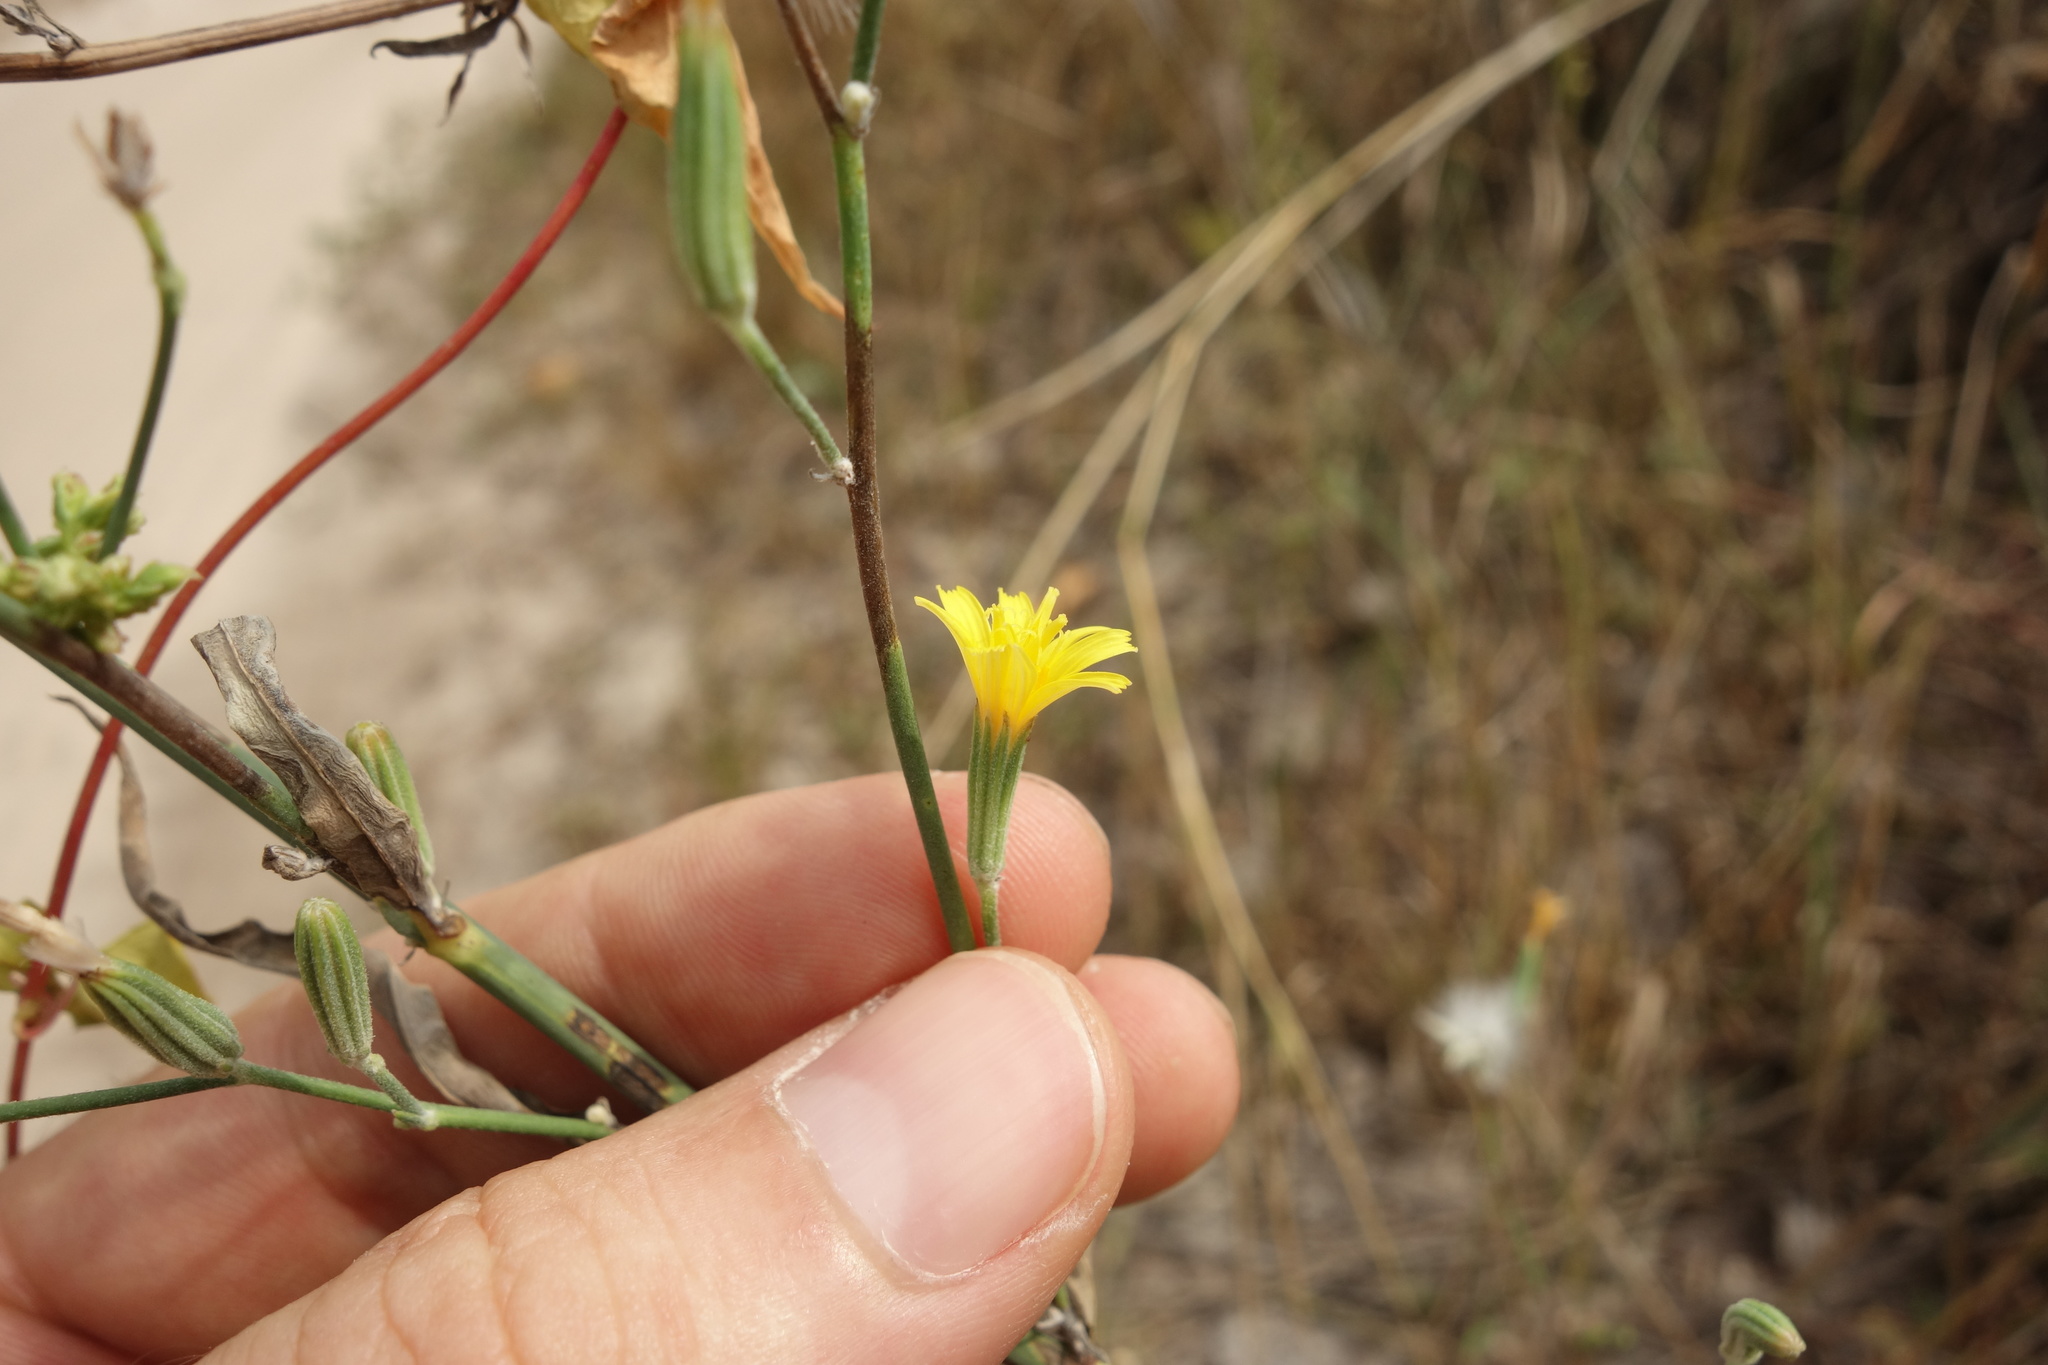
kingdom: Plantae
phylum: Tracheophyta
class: Magnoliopsida
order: Asterales
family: Asteraceae
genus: Chondrilla
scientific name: Chondrilla juncea
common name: Skeleton weed
